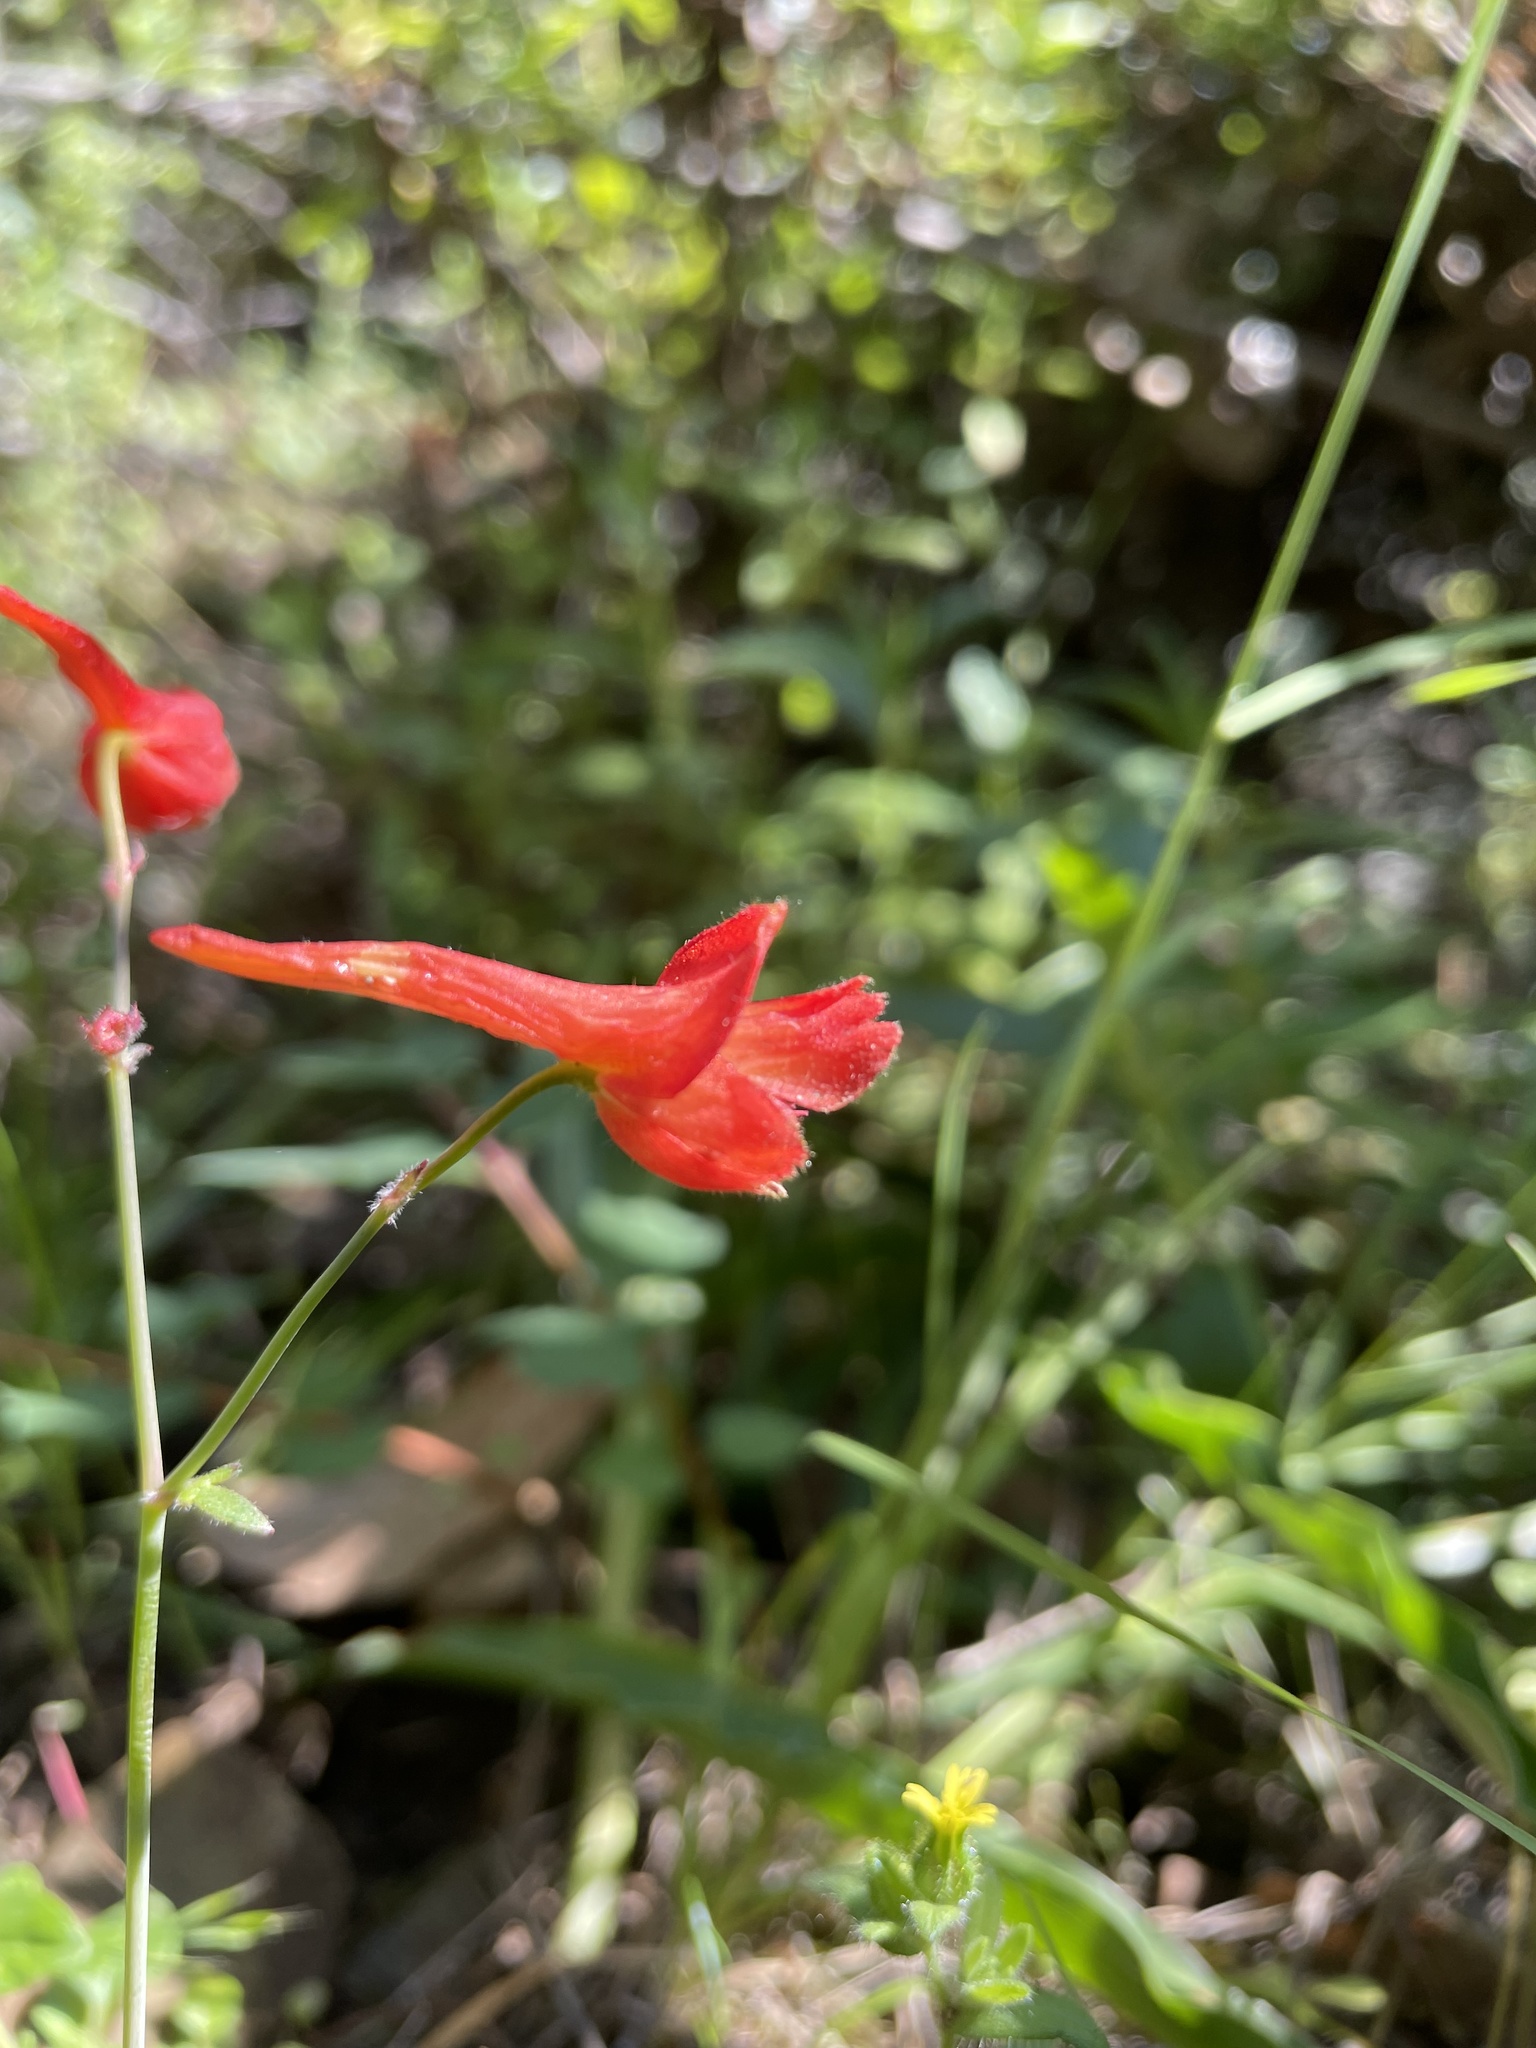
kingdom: Plantae
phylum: Tracheophyta
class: Magnoliopsida
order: Ranunculales
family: Ranunculaceae
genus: Delphinium
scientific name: Delphinium nudicaule
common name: Red larkspur
